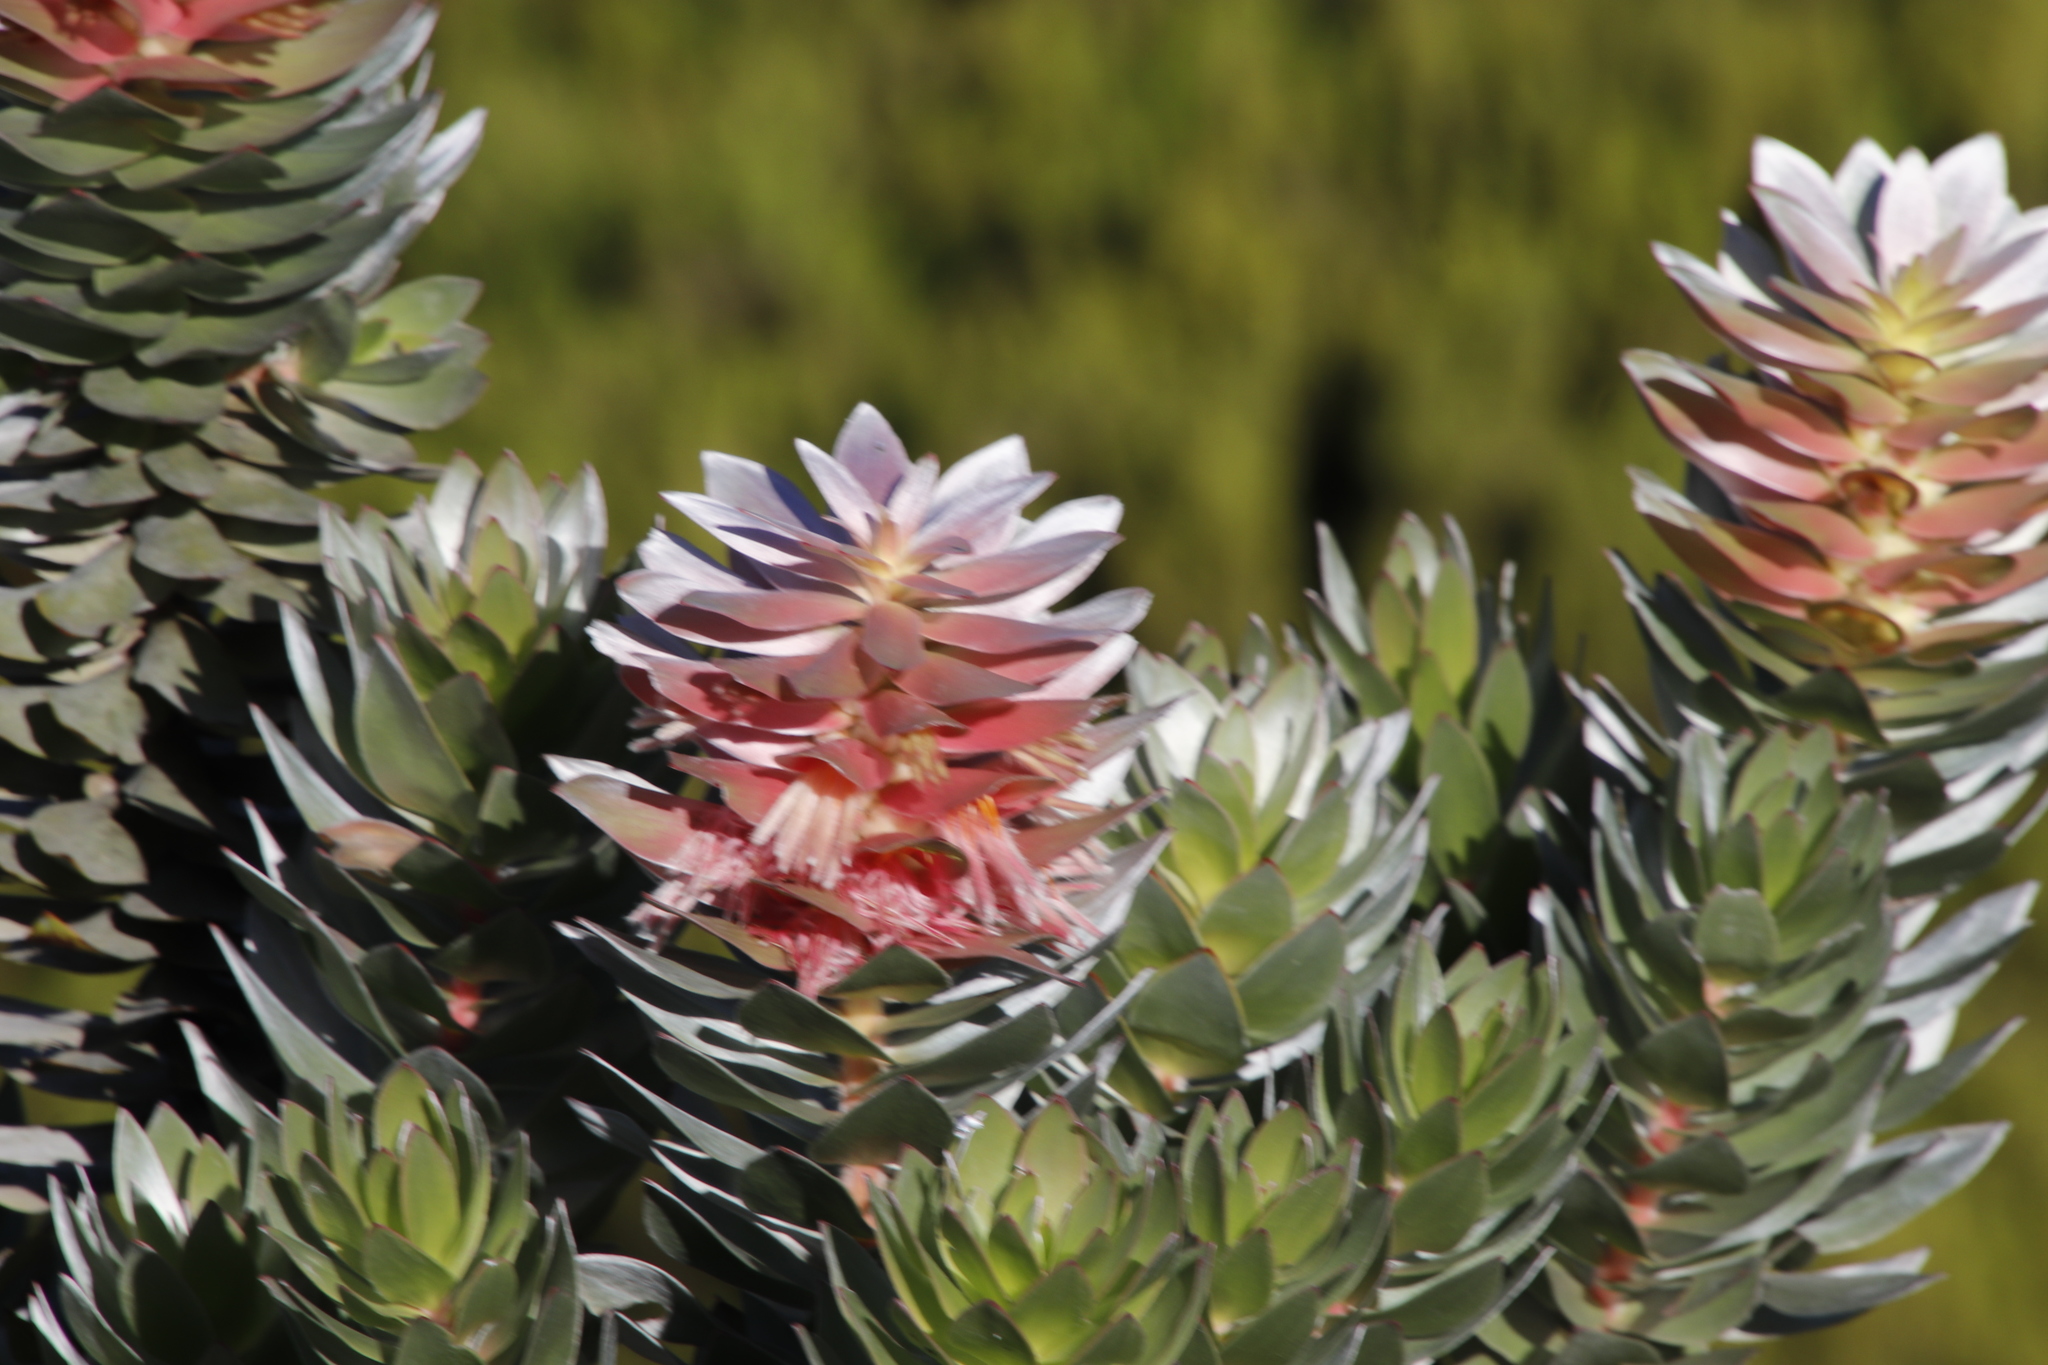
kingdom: Plantae
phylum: Tracheophyta
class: Magnoliopsida
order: Proteales
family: Proteaceae
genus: Mimetes
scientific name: Mimetes arboreus
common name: Kogelberg pagoda
